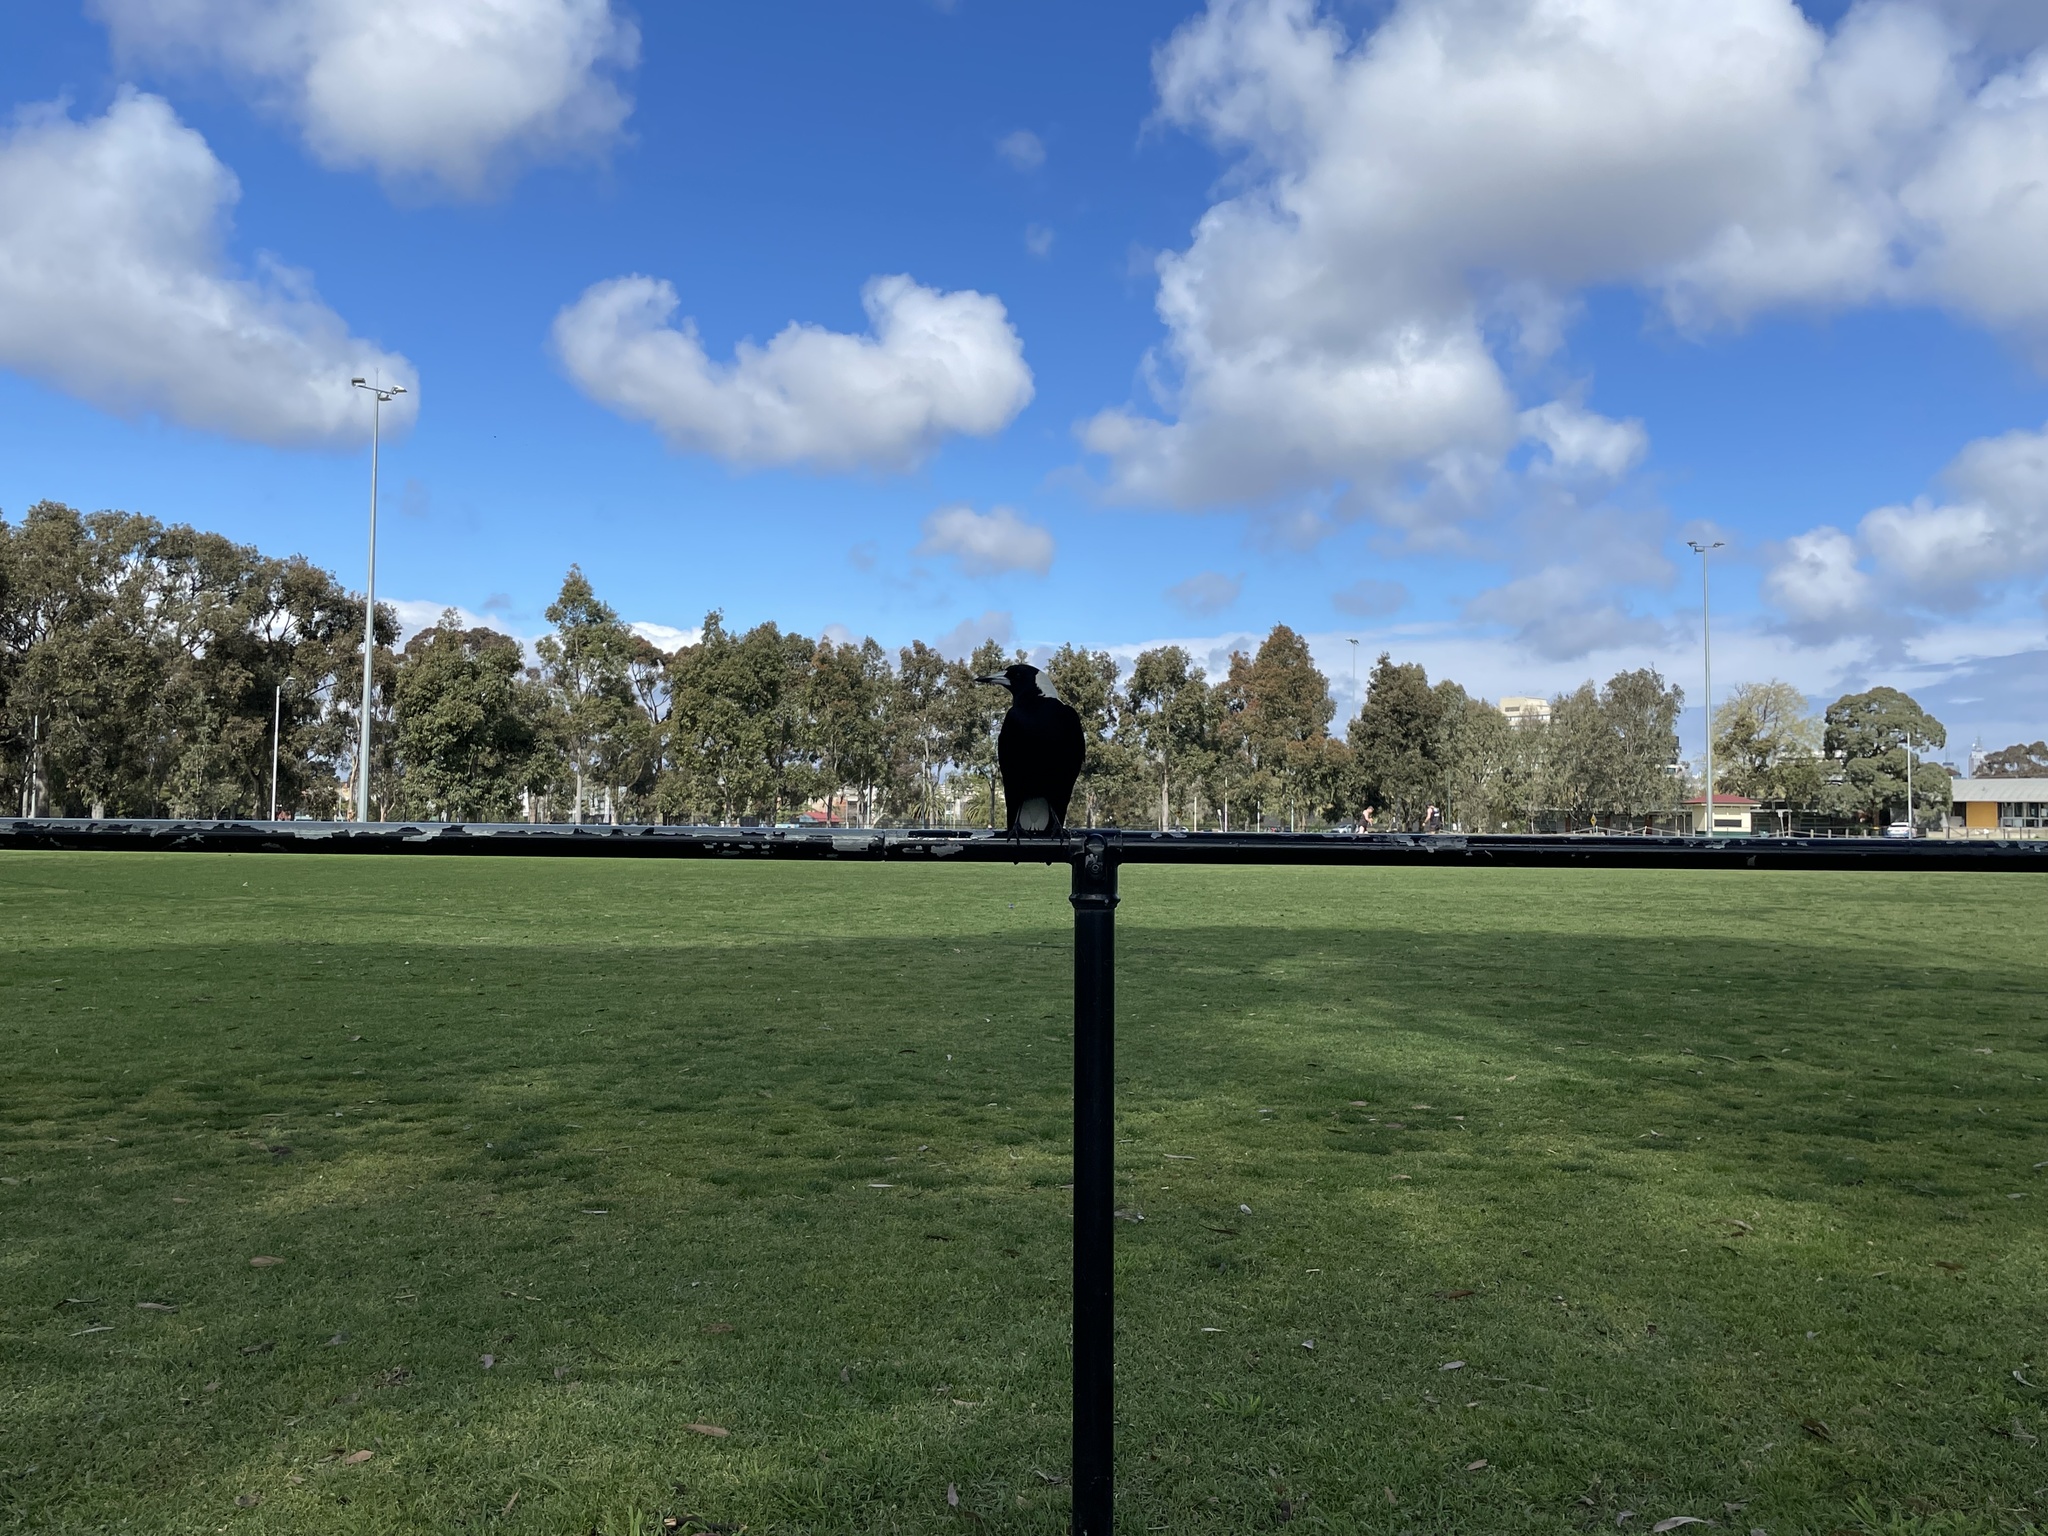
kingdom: Animalia
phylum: Chordata
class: Aves
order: Passeriformes
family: Cracticidae
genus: Gymnorhina
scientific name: Gymnorhina tibicen
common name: Australian magpie
